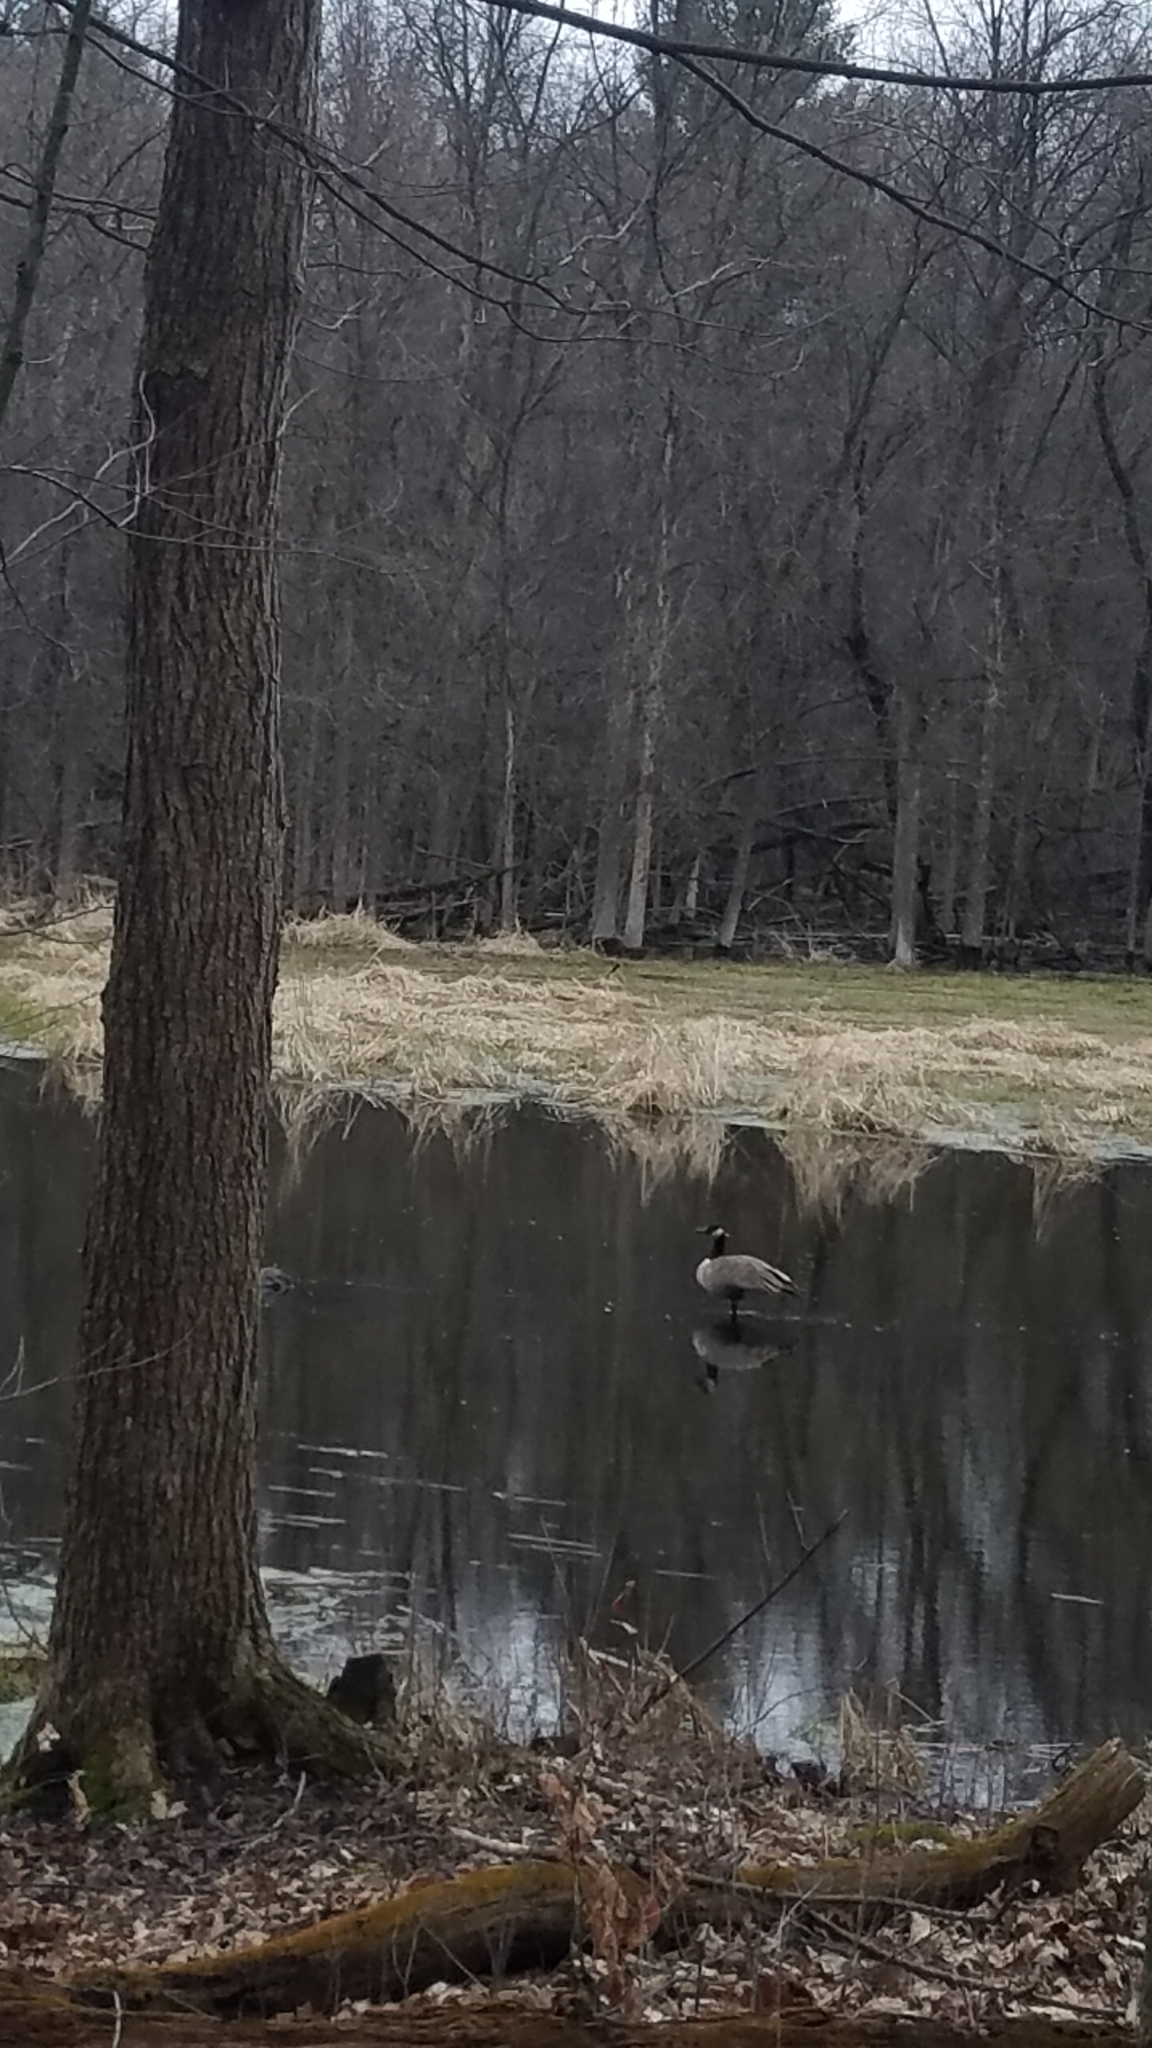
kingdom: Animalia
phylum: Chordata
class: Aves
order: Anseriformes
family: Anatidae
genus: Branta
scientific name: Branta canadensis
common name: Canada goose
